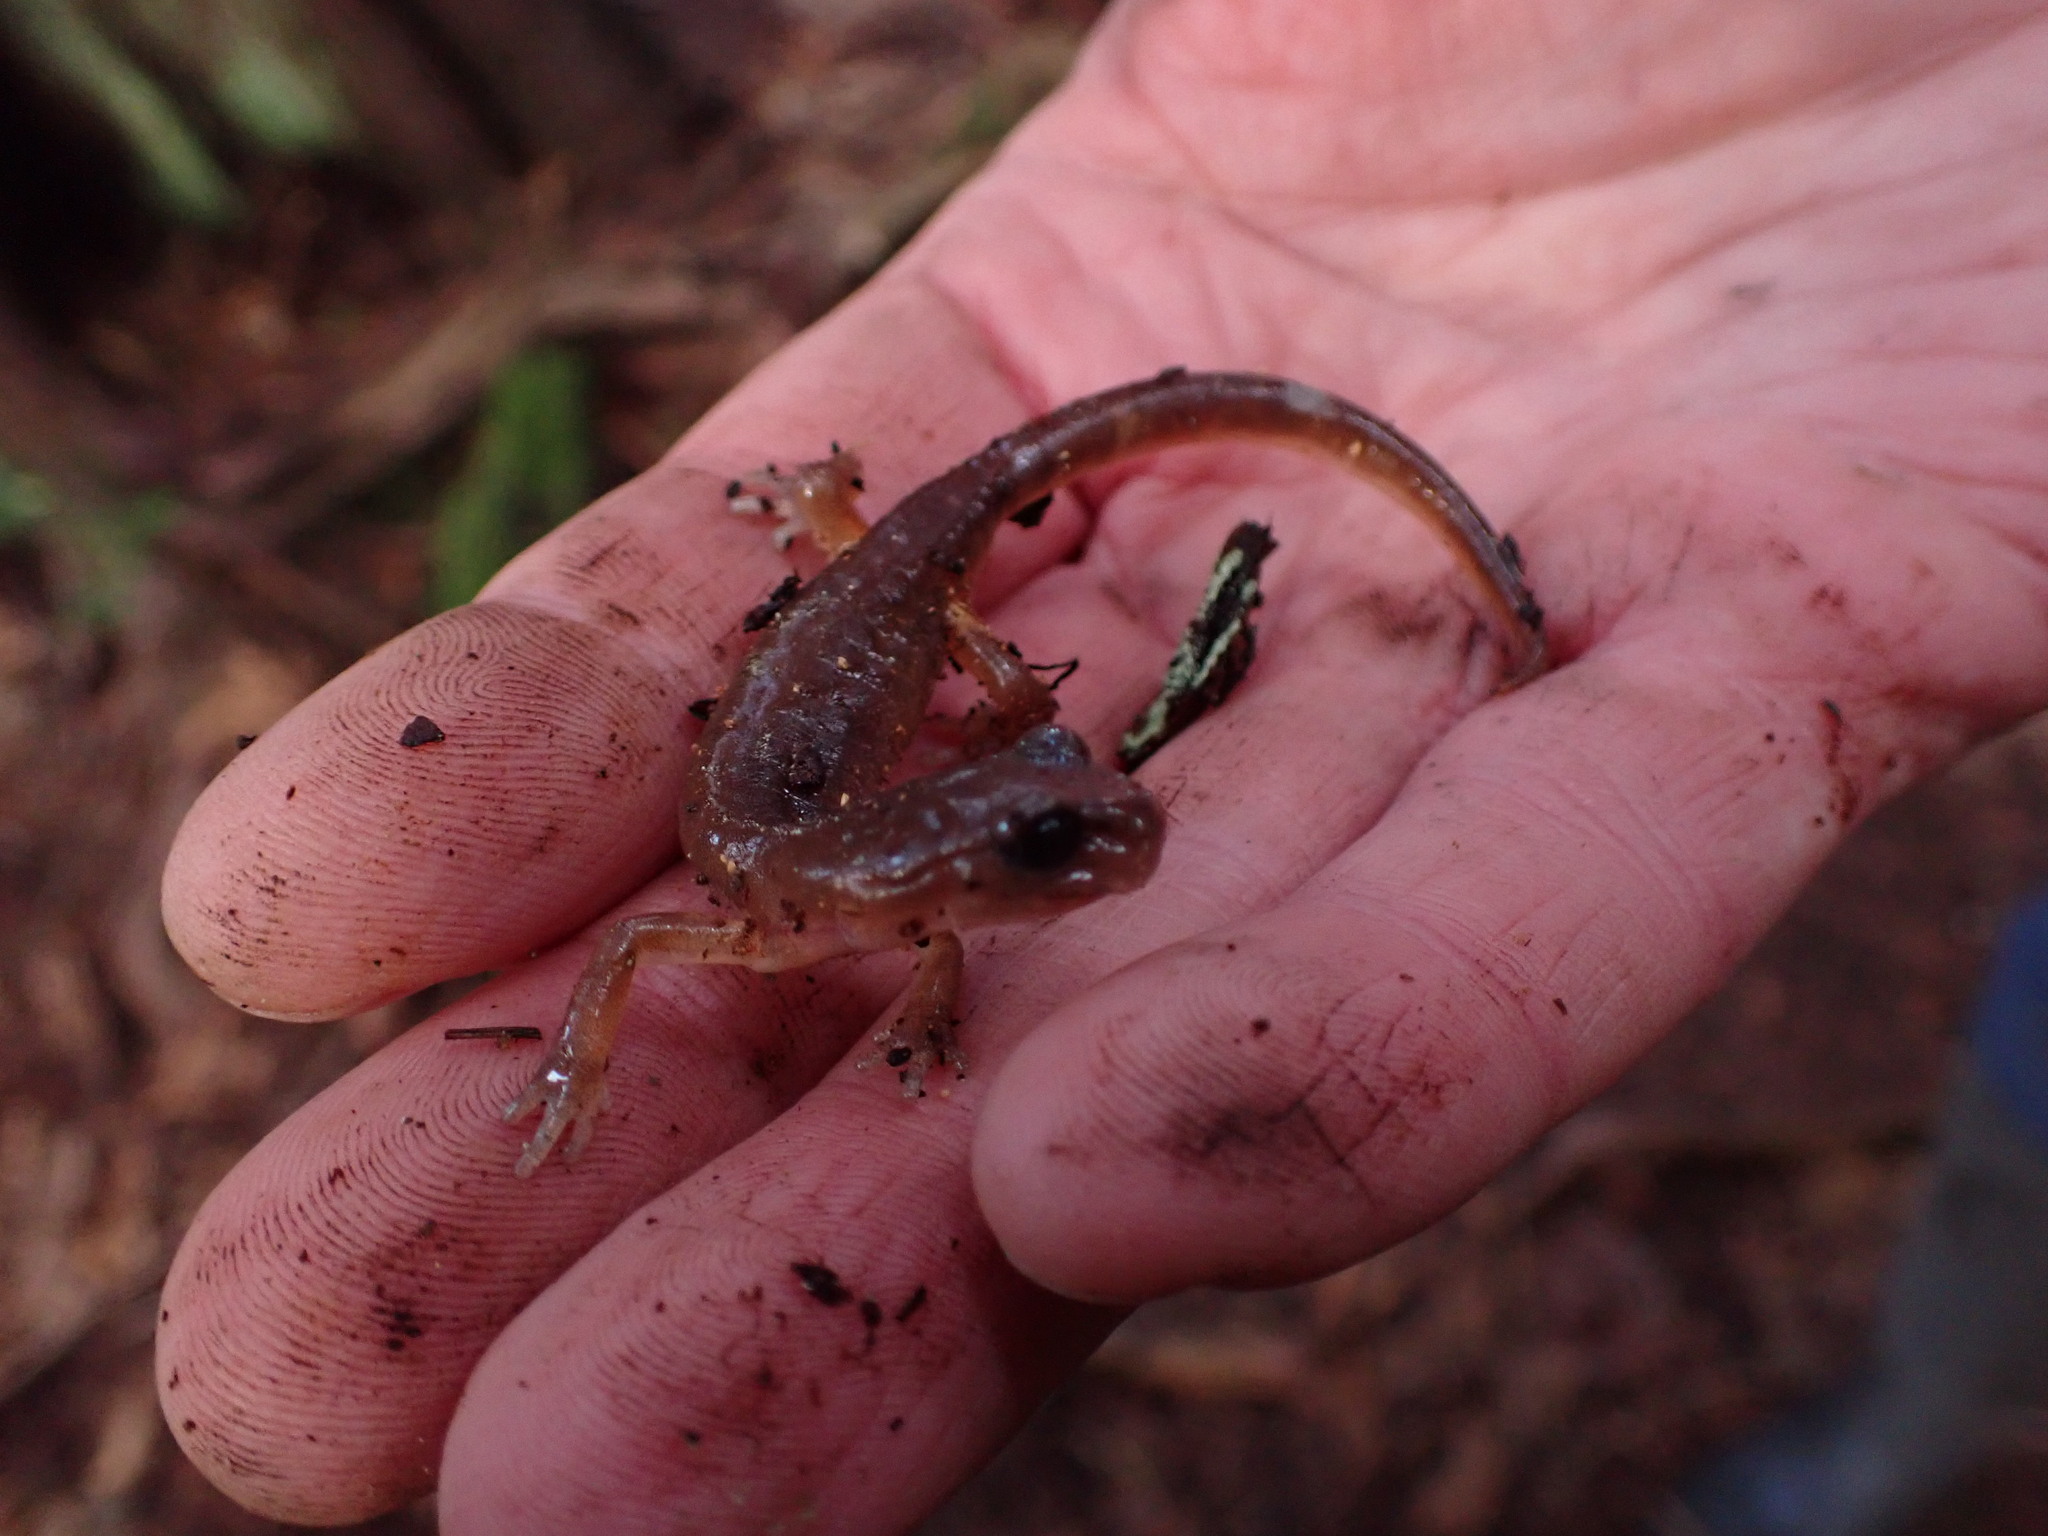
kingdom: Animalia
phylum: Chordata
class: Amphibia
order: Caudata
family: Plethodontidae
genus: Ensatina
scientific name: Ensatina eschscholtzii
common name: Ensatina
